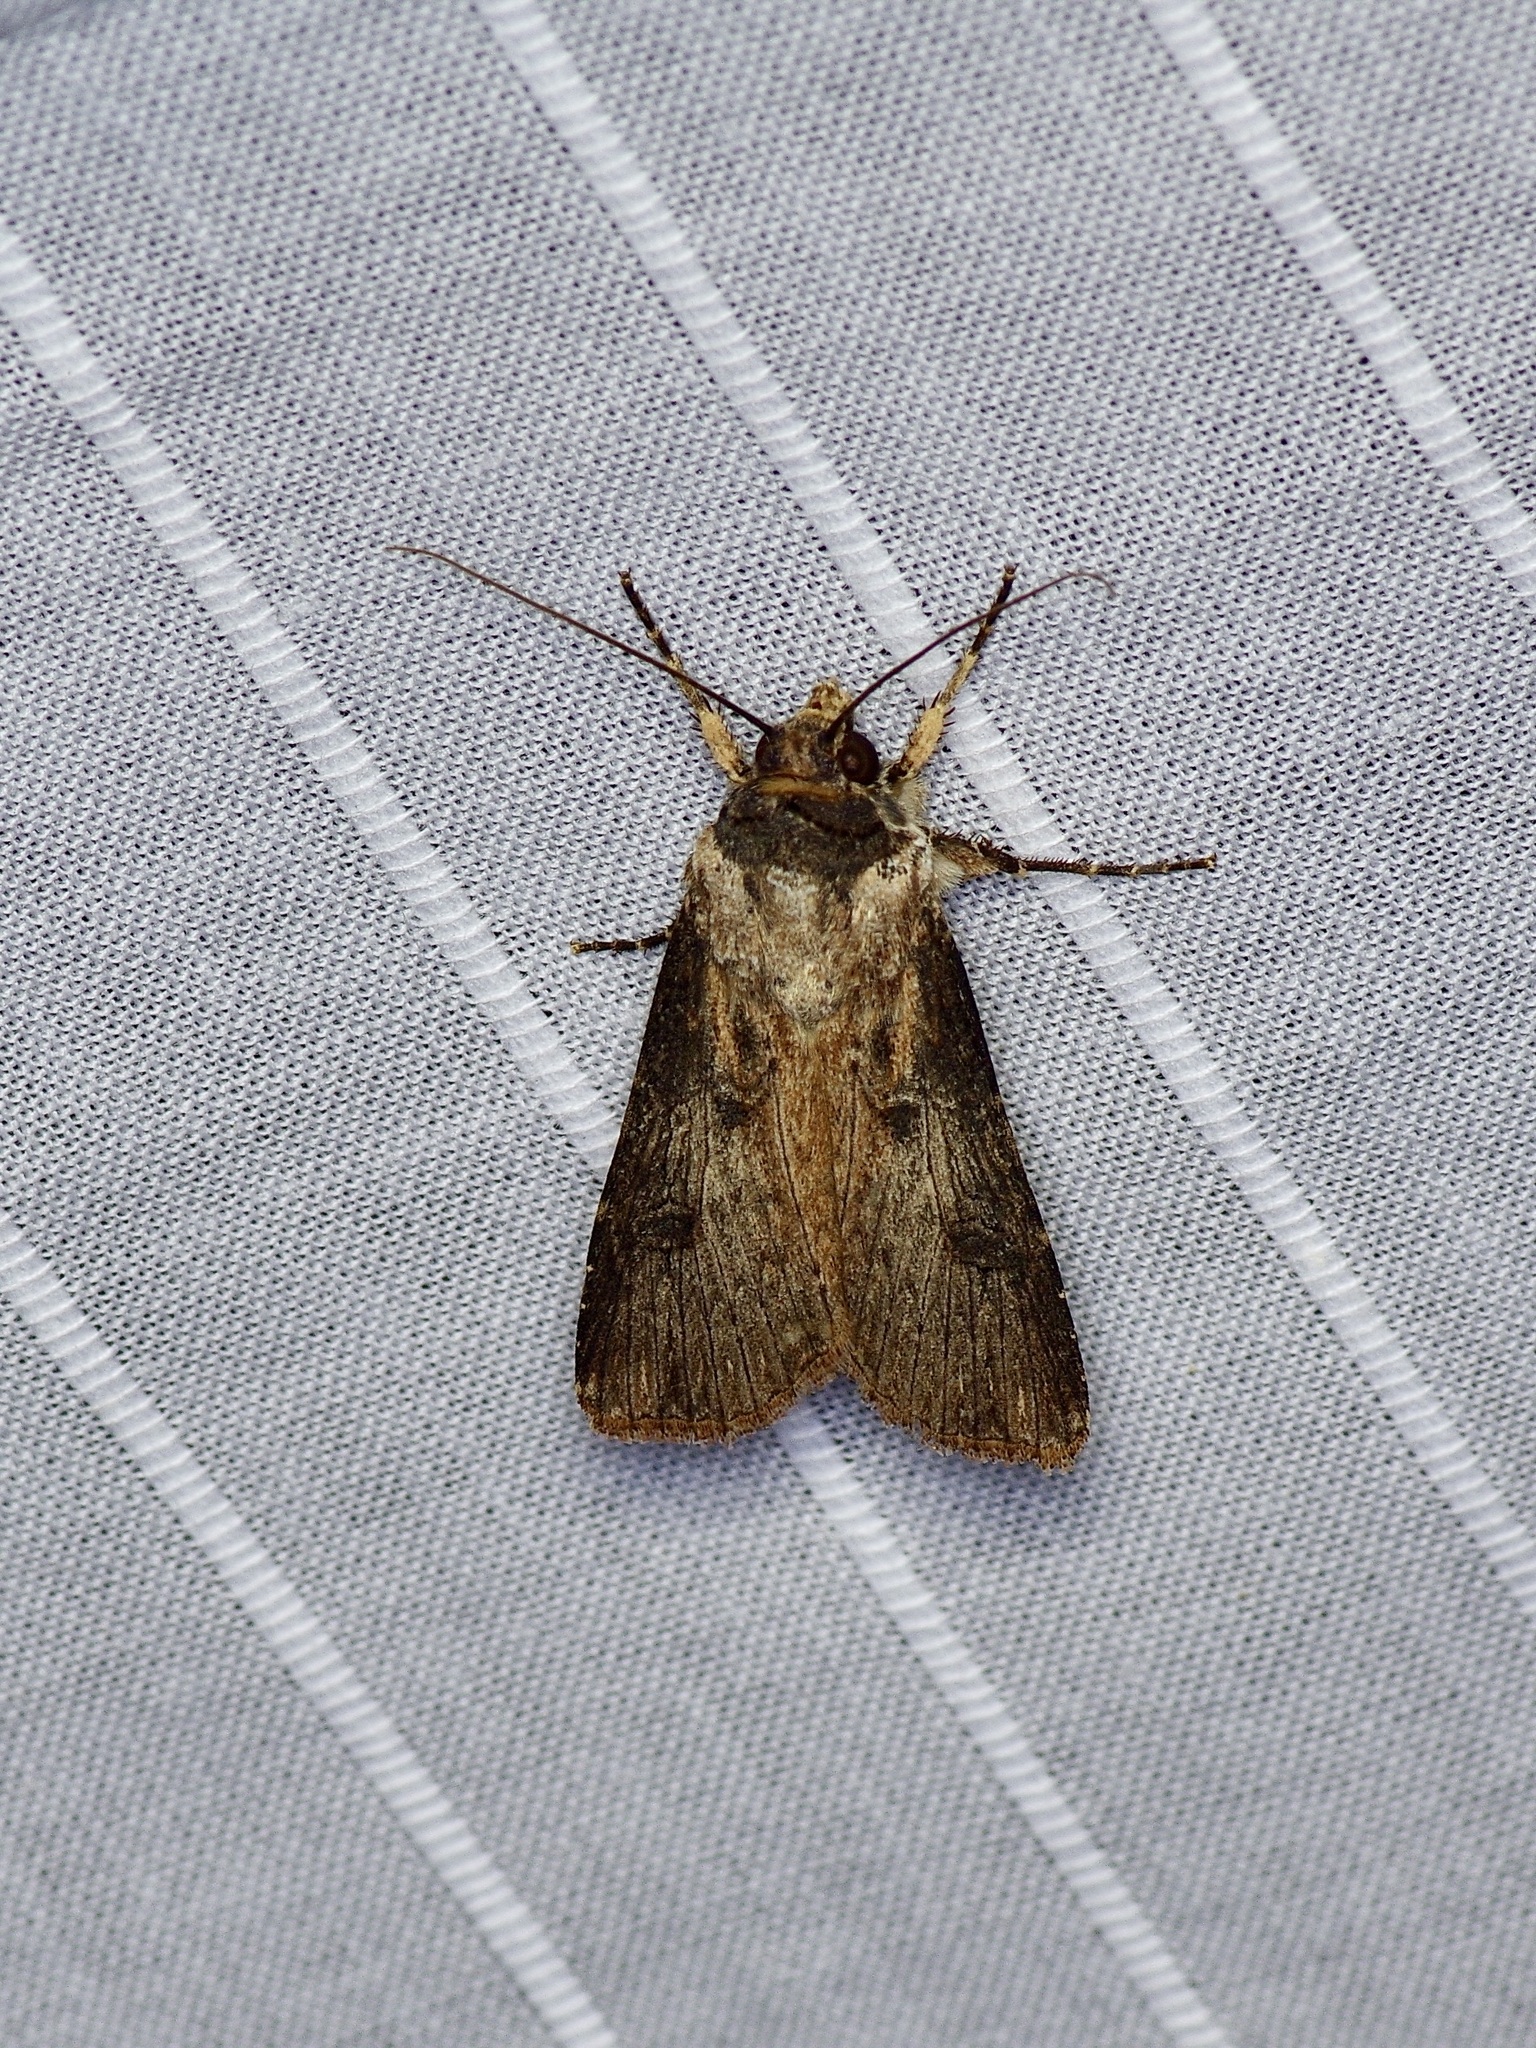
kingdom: Animalia
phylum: Arthropoda
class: Insecta
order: Lepidoptera
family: Noctuidae
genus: Agrotis
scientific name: Agrotis malefida
